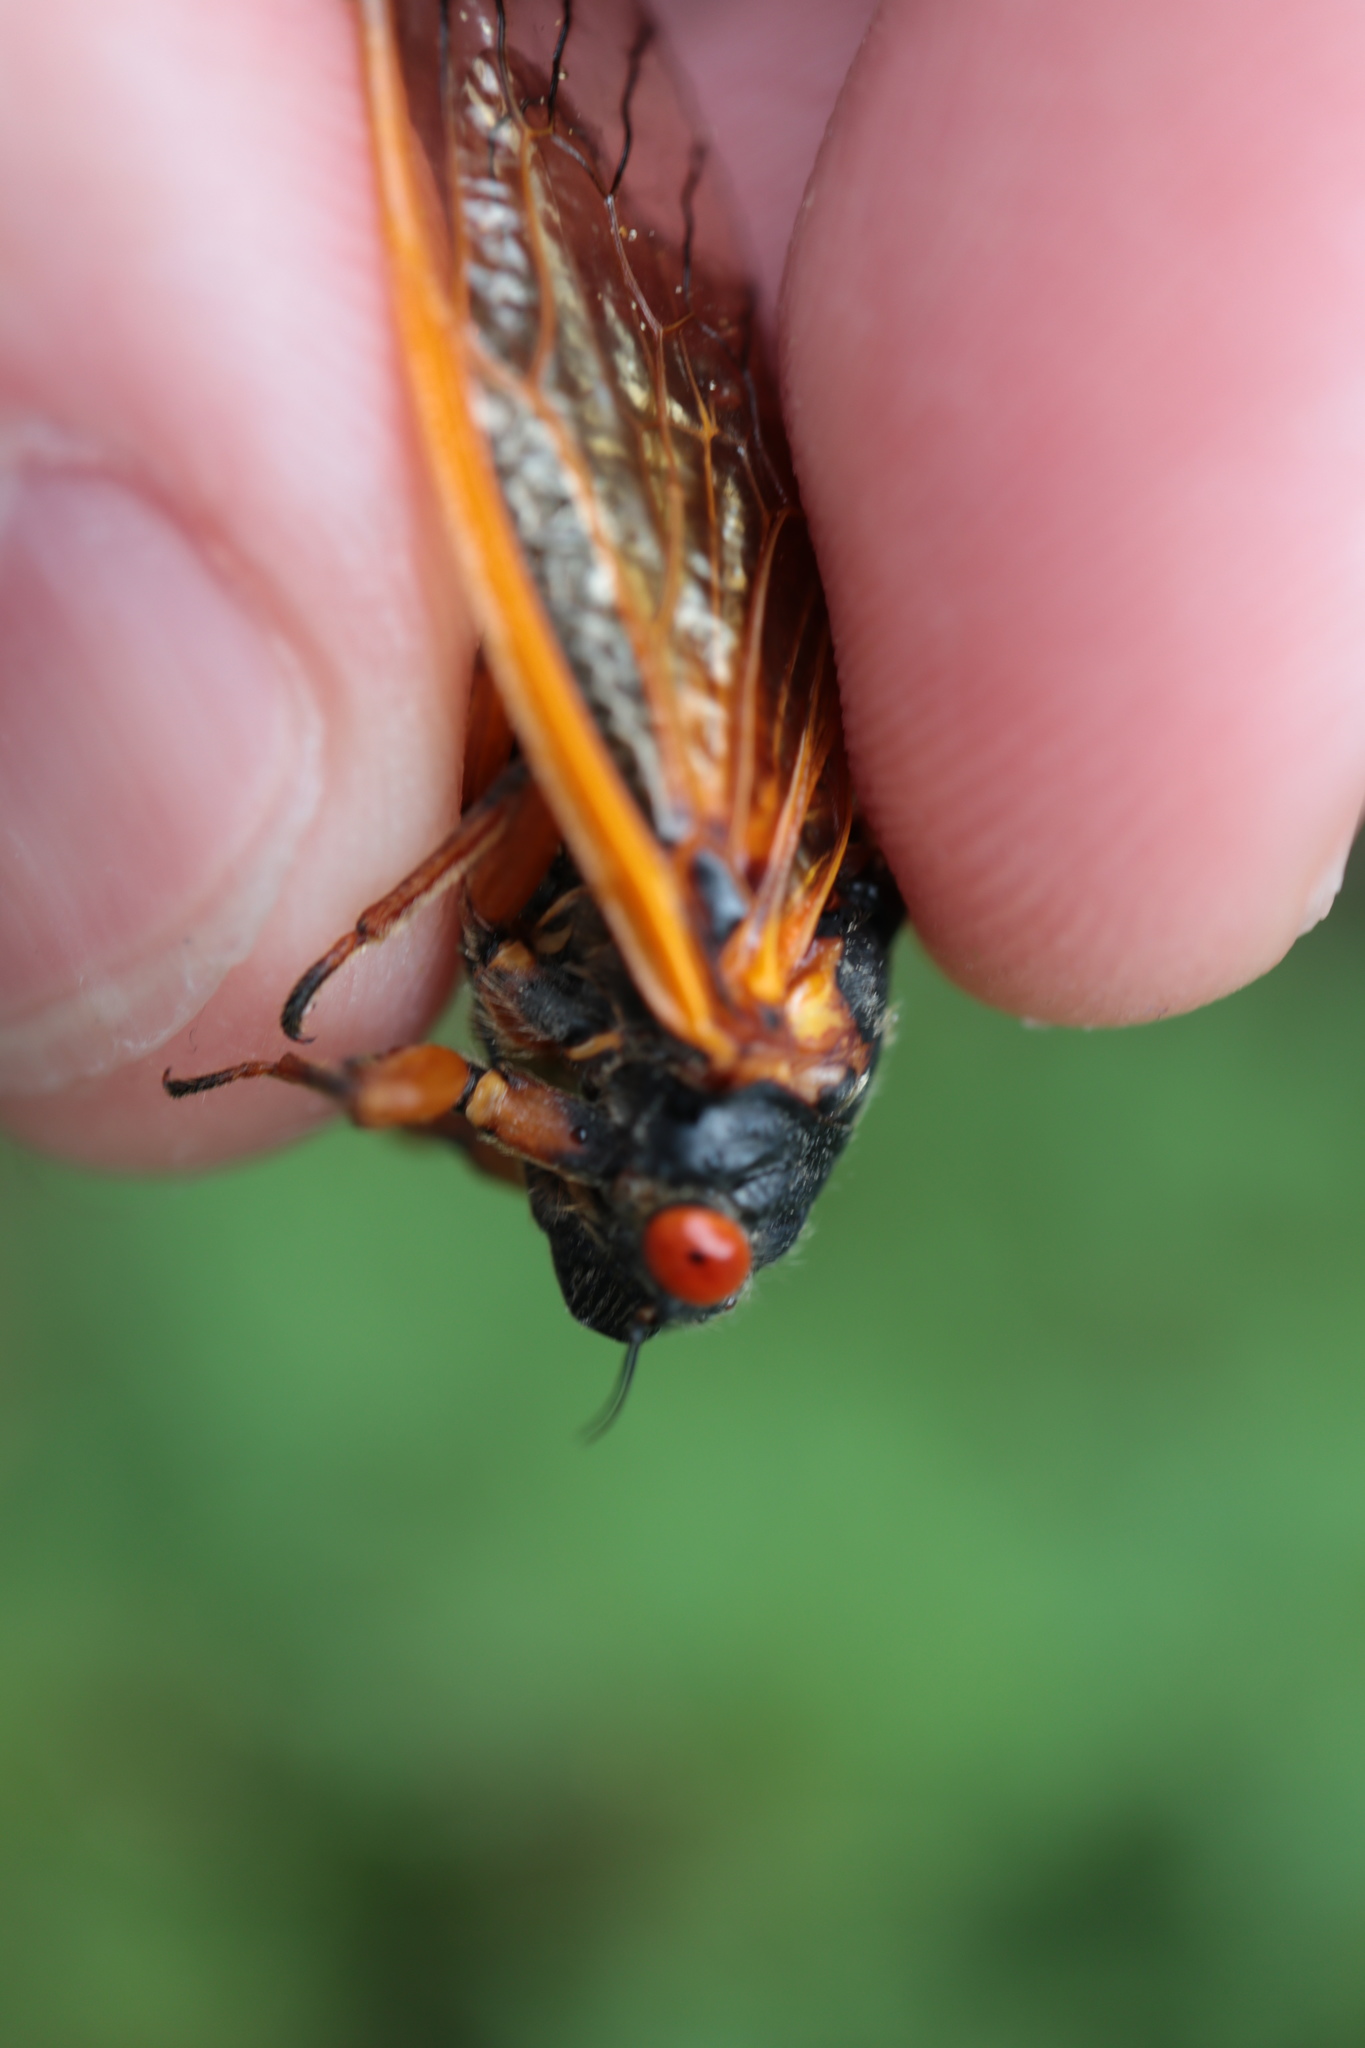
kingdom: Animalia
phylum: Arthropoda
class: Insecta
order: Hemiptera
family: Cicadidae
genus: Magicicada
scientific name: Magicicada cassini
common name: Cassin's 17-year cicada
